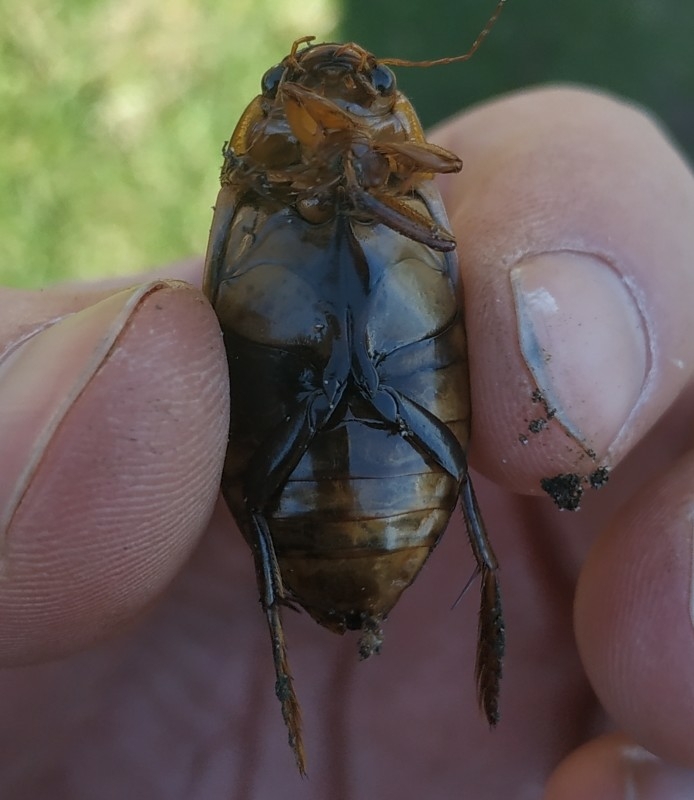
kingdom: Animalia
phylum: Arthropoda
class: Insecta
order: Coleoptera
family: Dytiscidae
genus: Dytiscus
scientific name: Dytiscus marginalis
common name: Great water beetle
